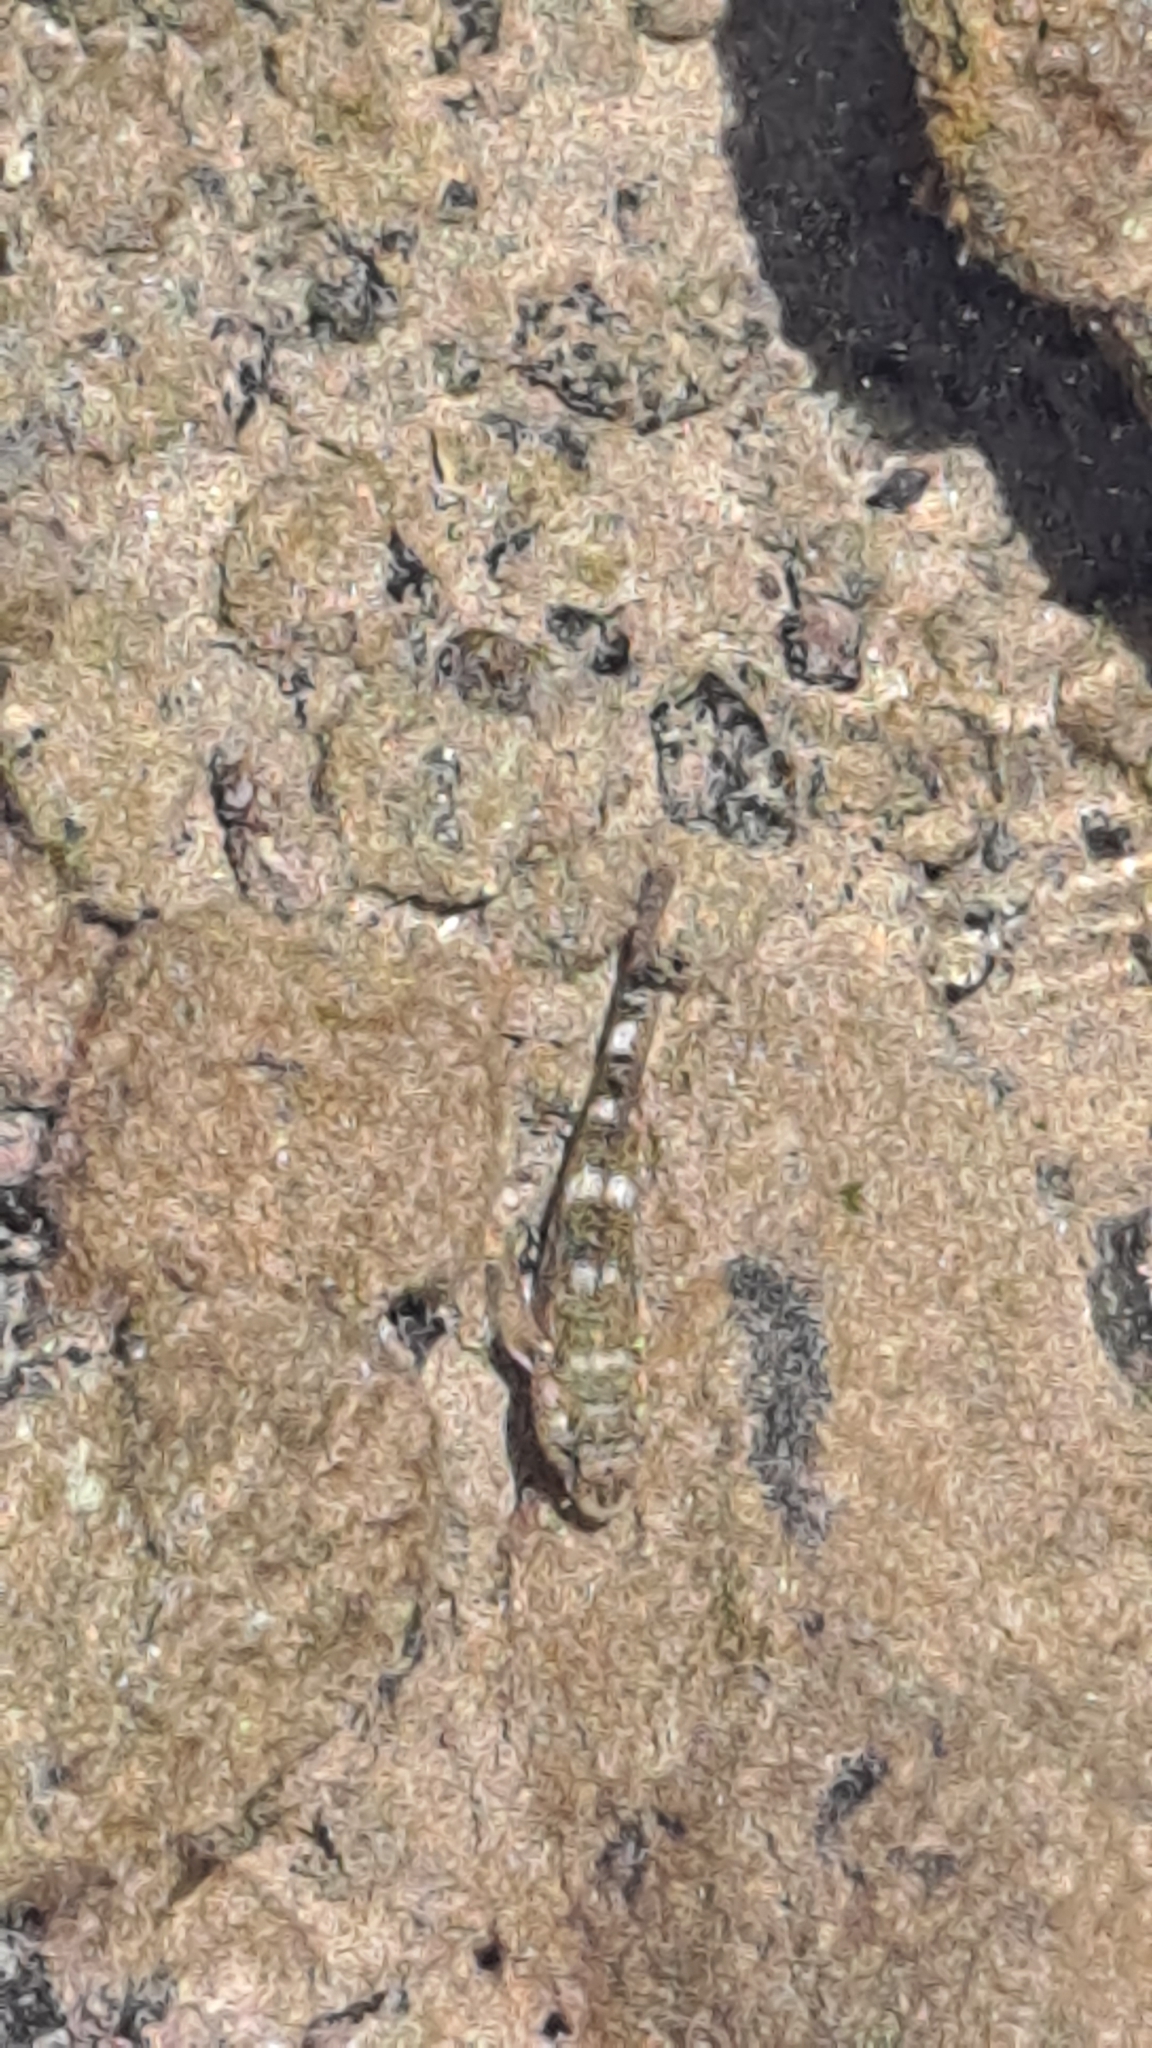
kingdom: Animalia
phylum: Chordata
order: Perciformes
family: Gobiidae
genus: Mauligobius
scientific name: Mauligobius maderensis
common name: Rock goby
